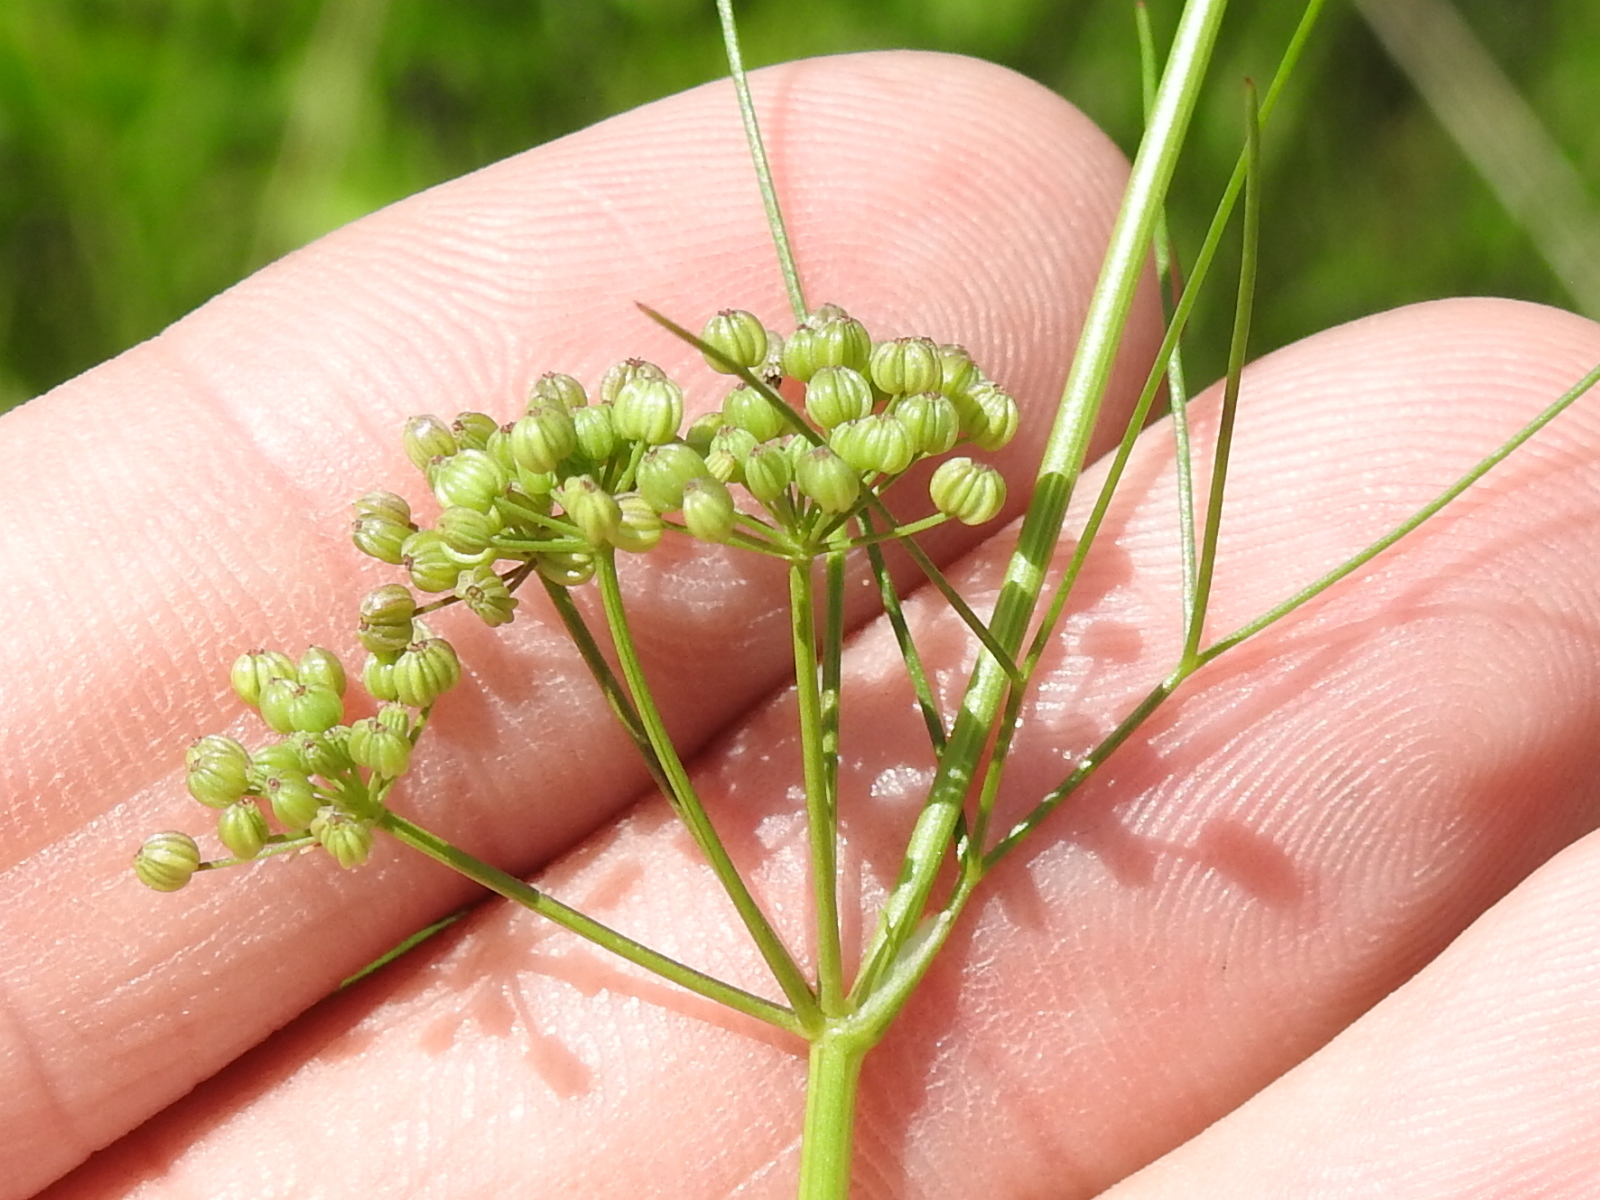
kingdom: Plantae
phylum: Tracheophyta
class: Magnoliopsida
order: Apiales
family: Apiaceae
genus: Cyclospermum
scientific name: Cyclospermum leptophyllum
